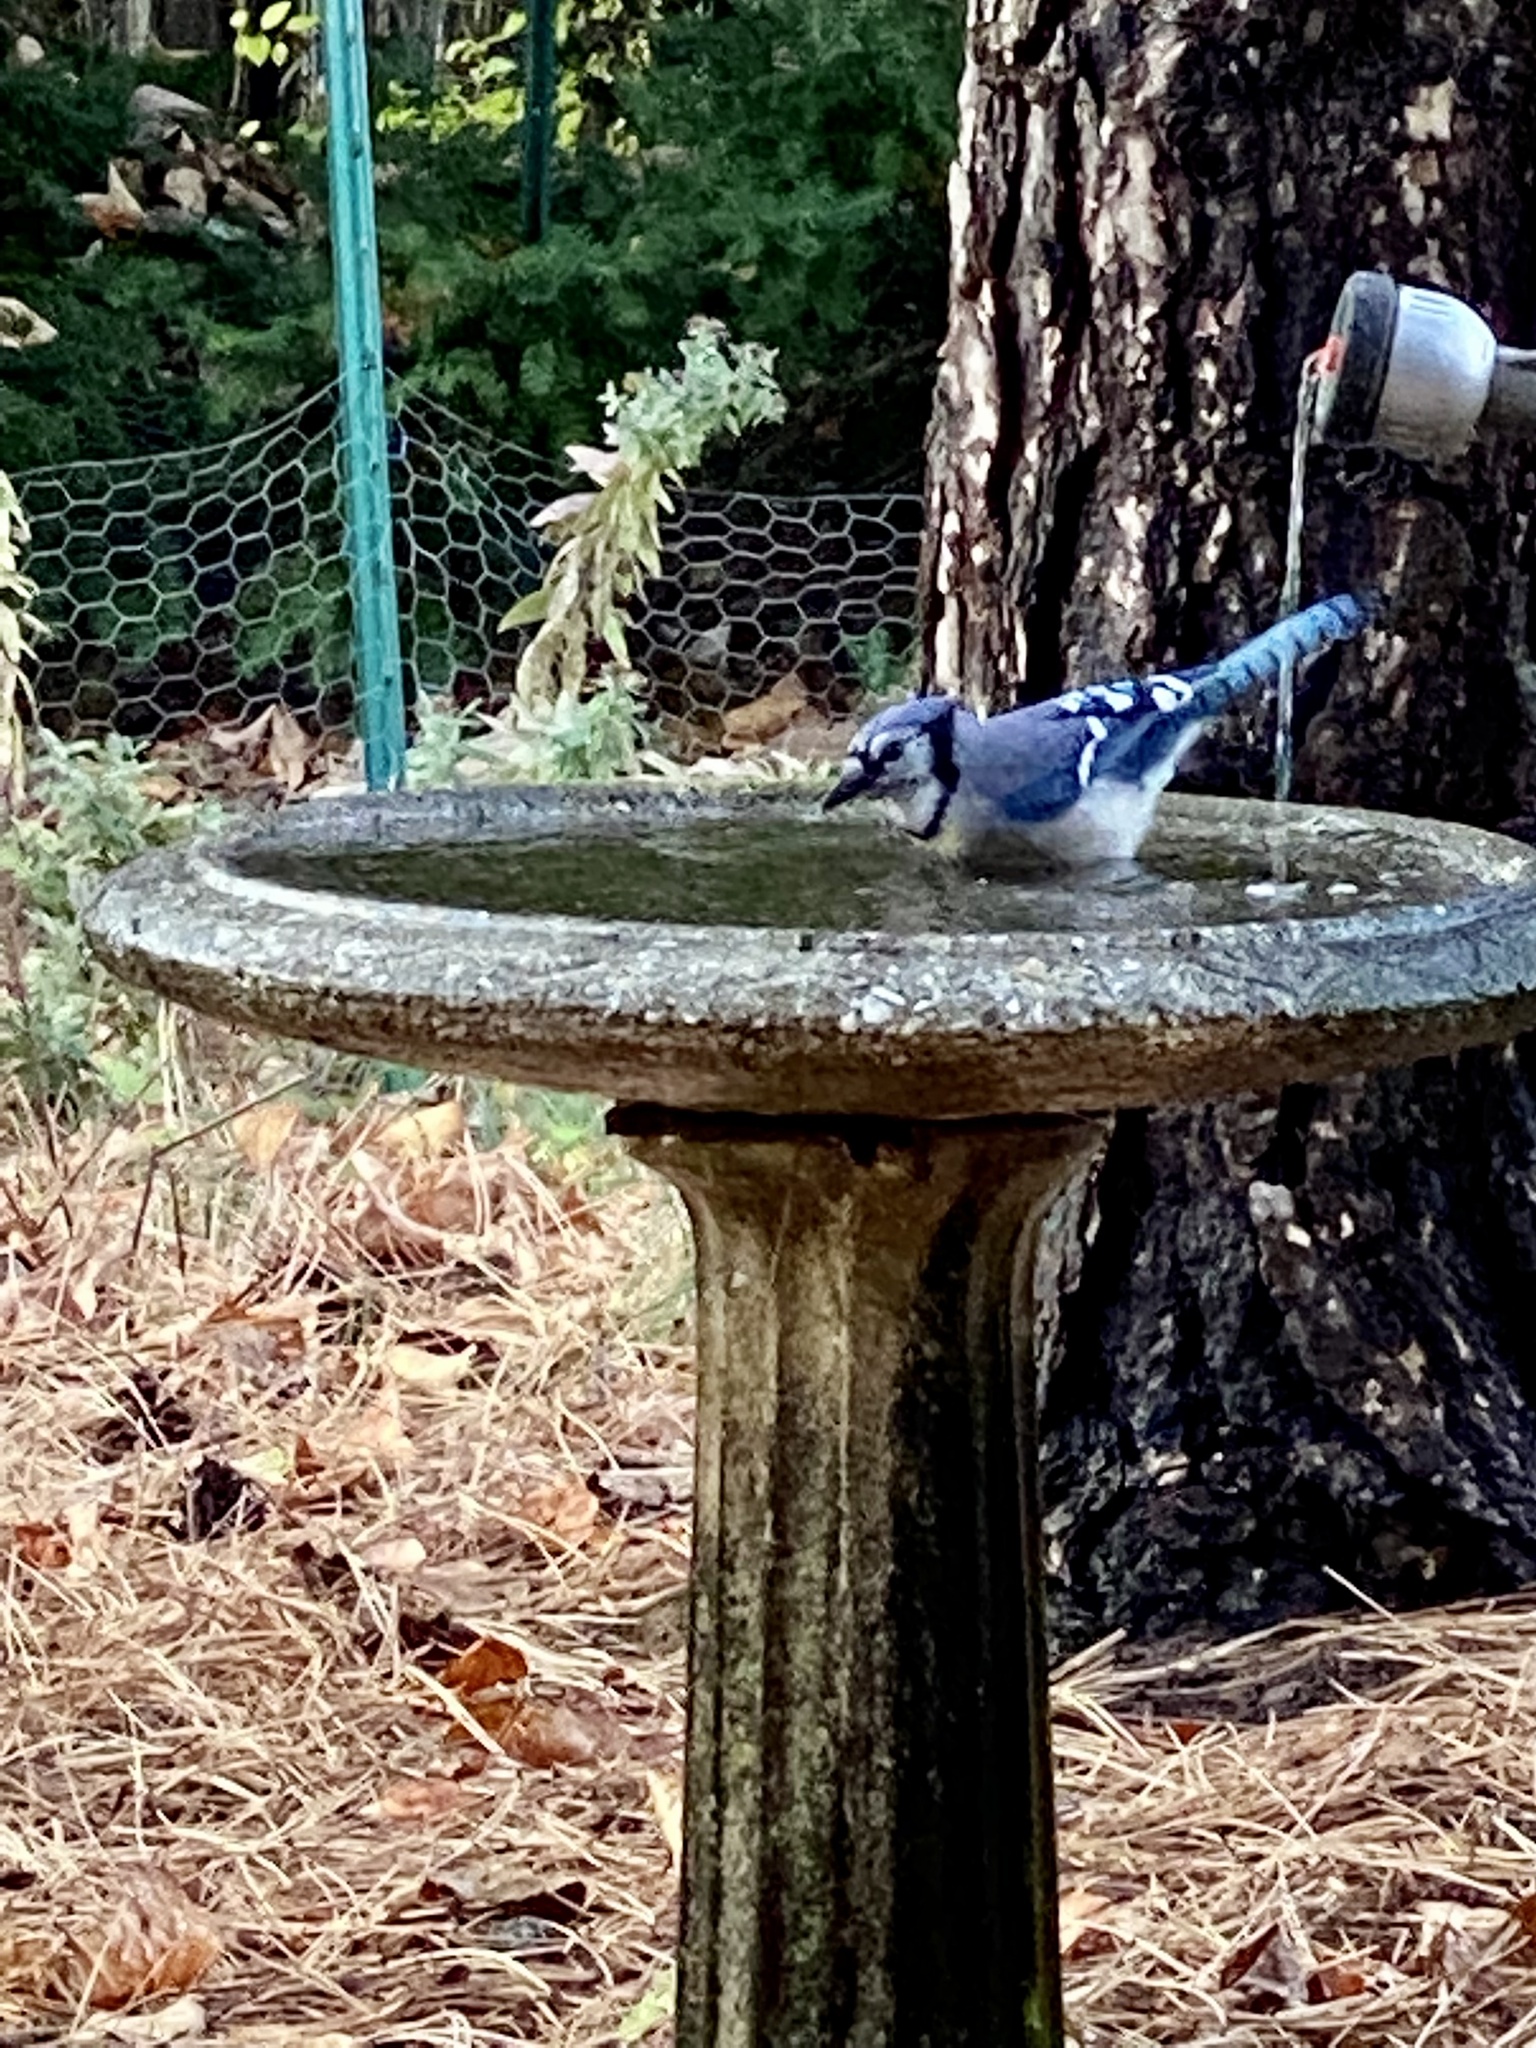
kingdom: Animalia
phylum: Chordata
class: Aves
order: Passeriformes
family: Corvidae
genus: Cyanocitta
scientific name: Cyanocitta cristata
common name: Blue jay
